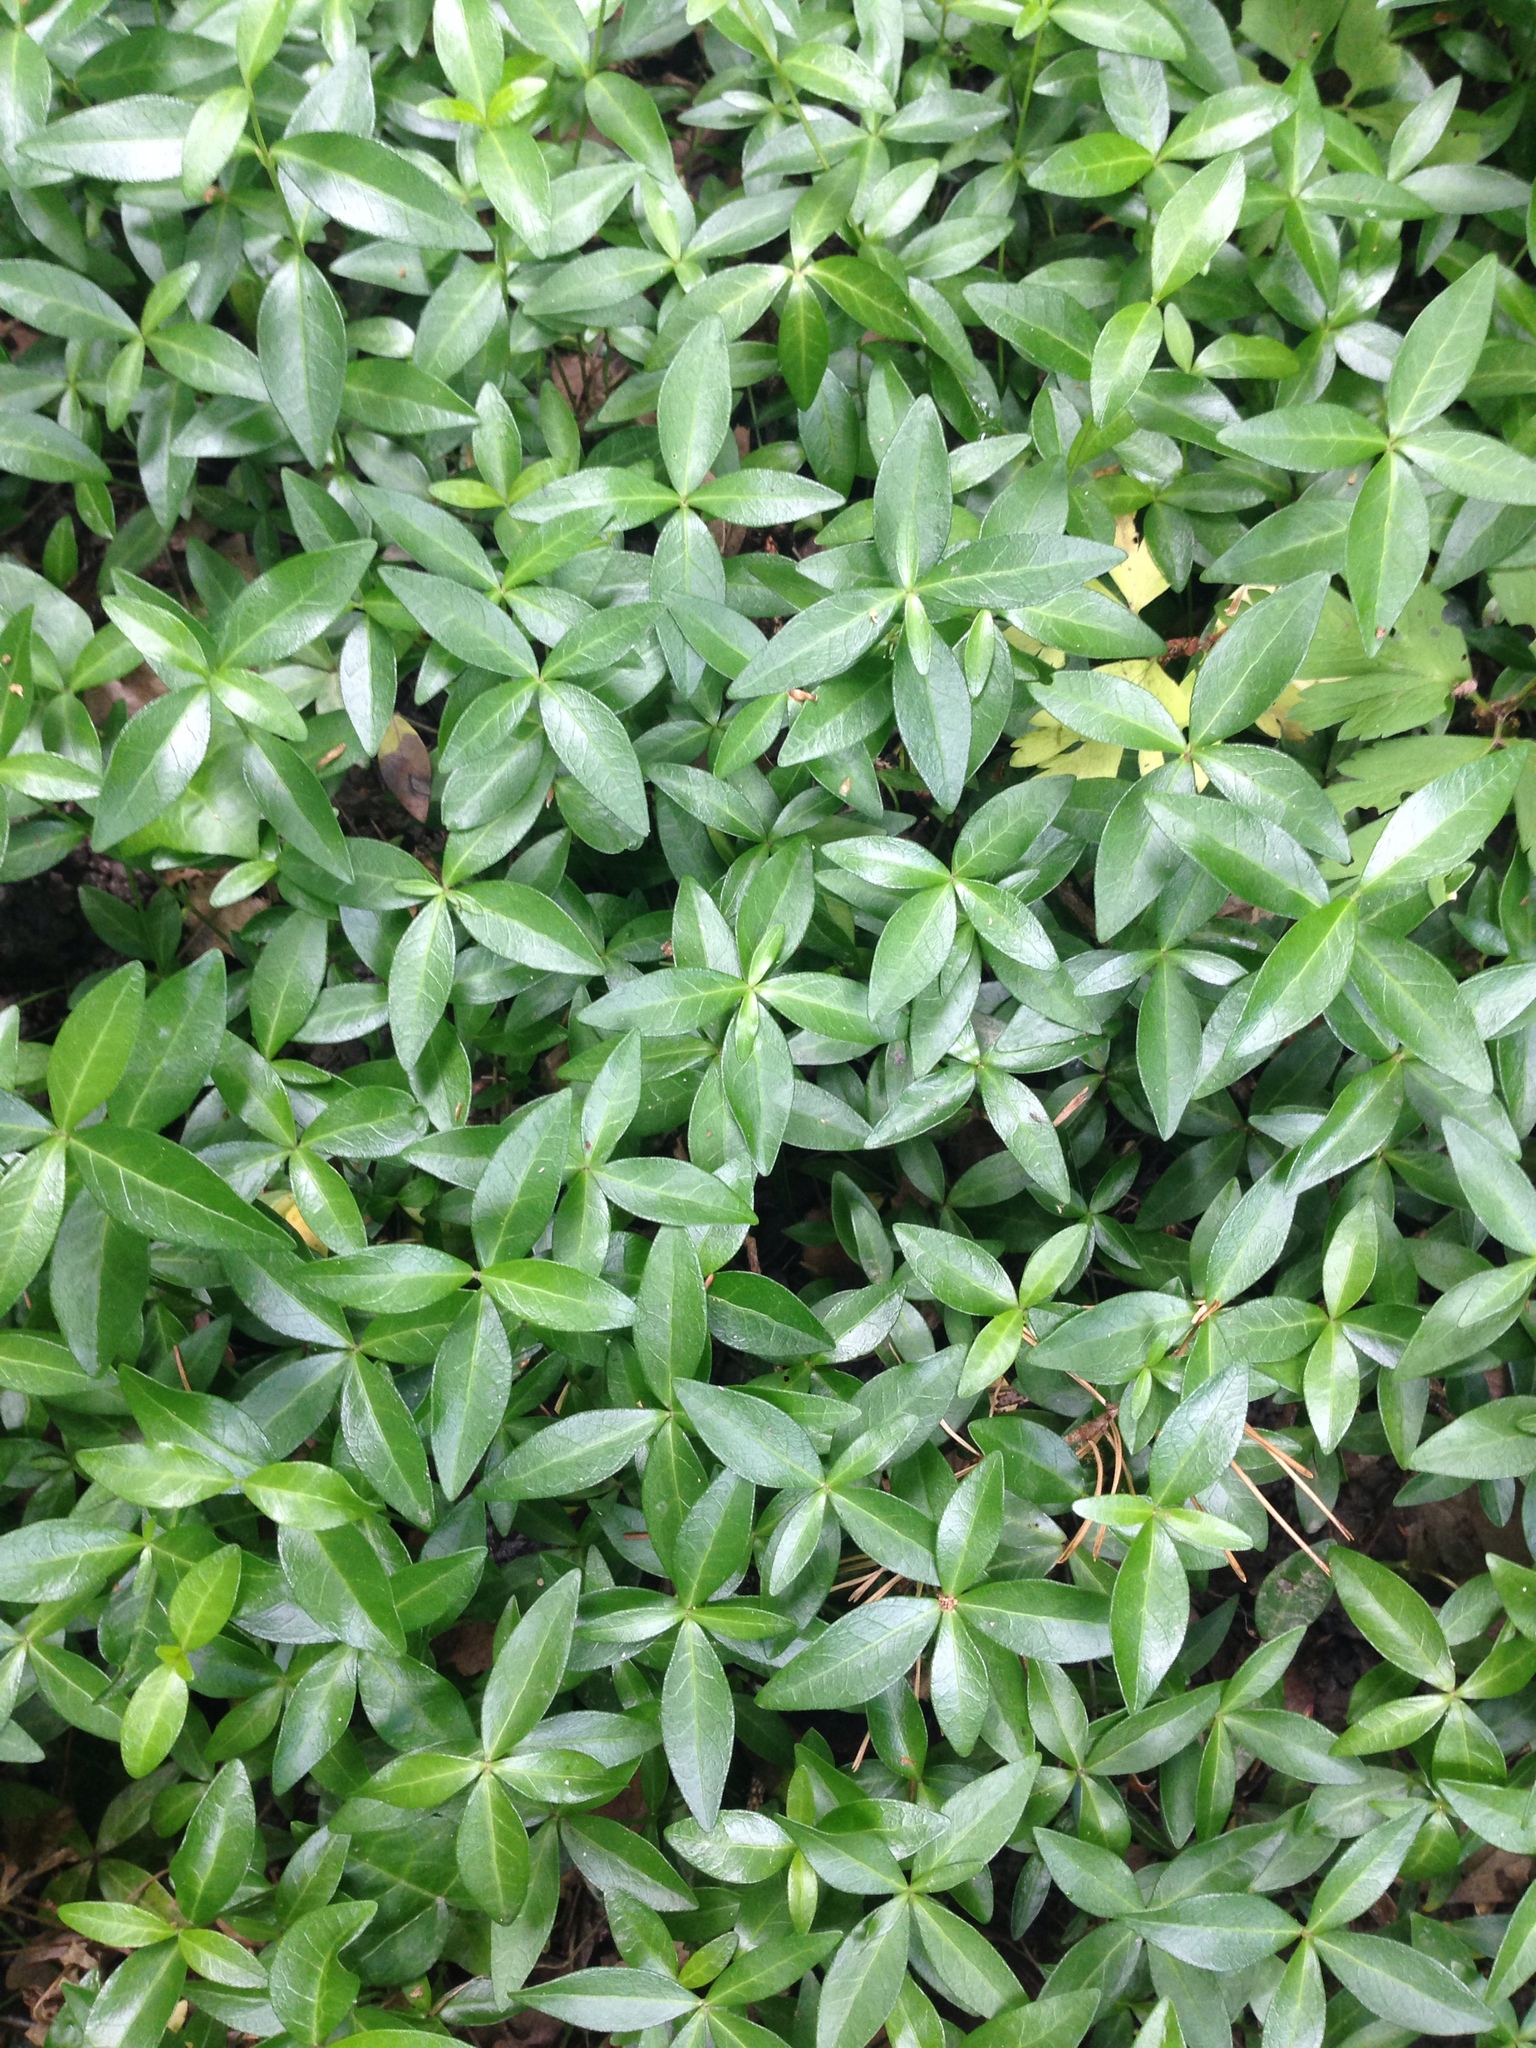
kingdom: Plantae
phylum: Tracheophyta
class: Magnoliopsida
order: Gentianales
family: Apocynaceae
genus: Vinca
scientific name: Vinca minor
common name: Lesser periwinkle
